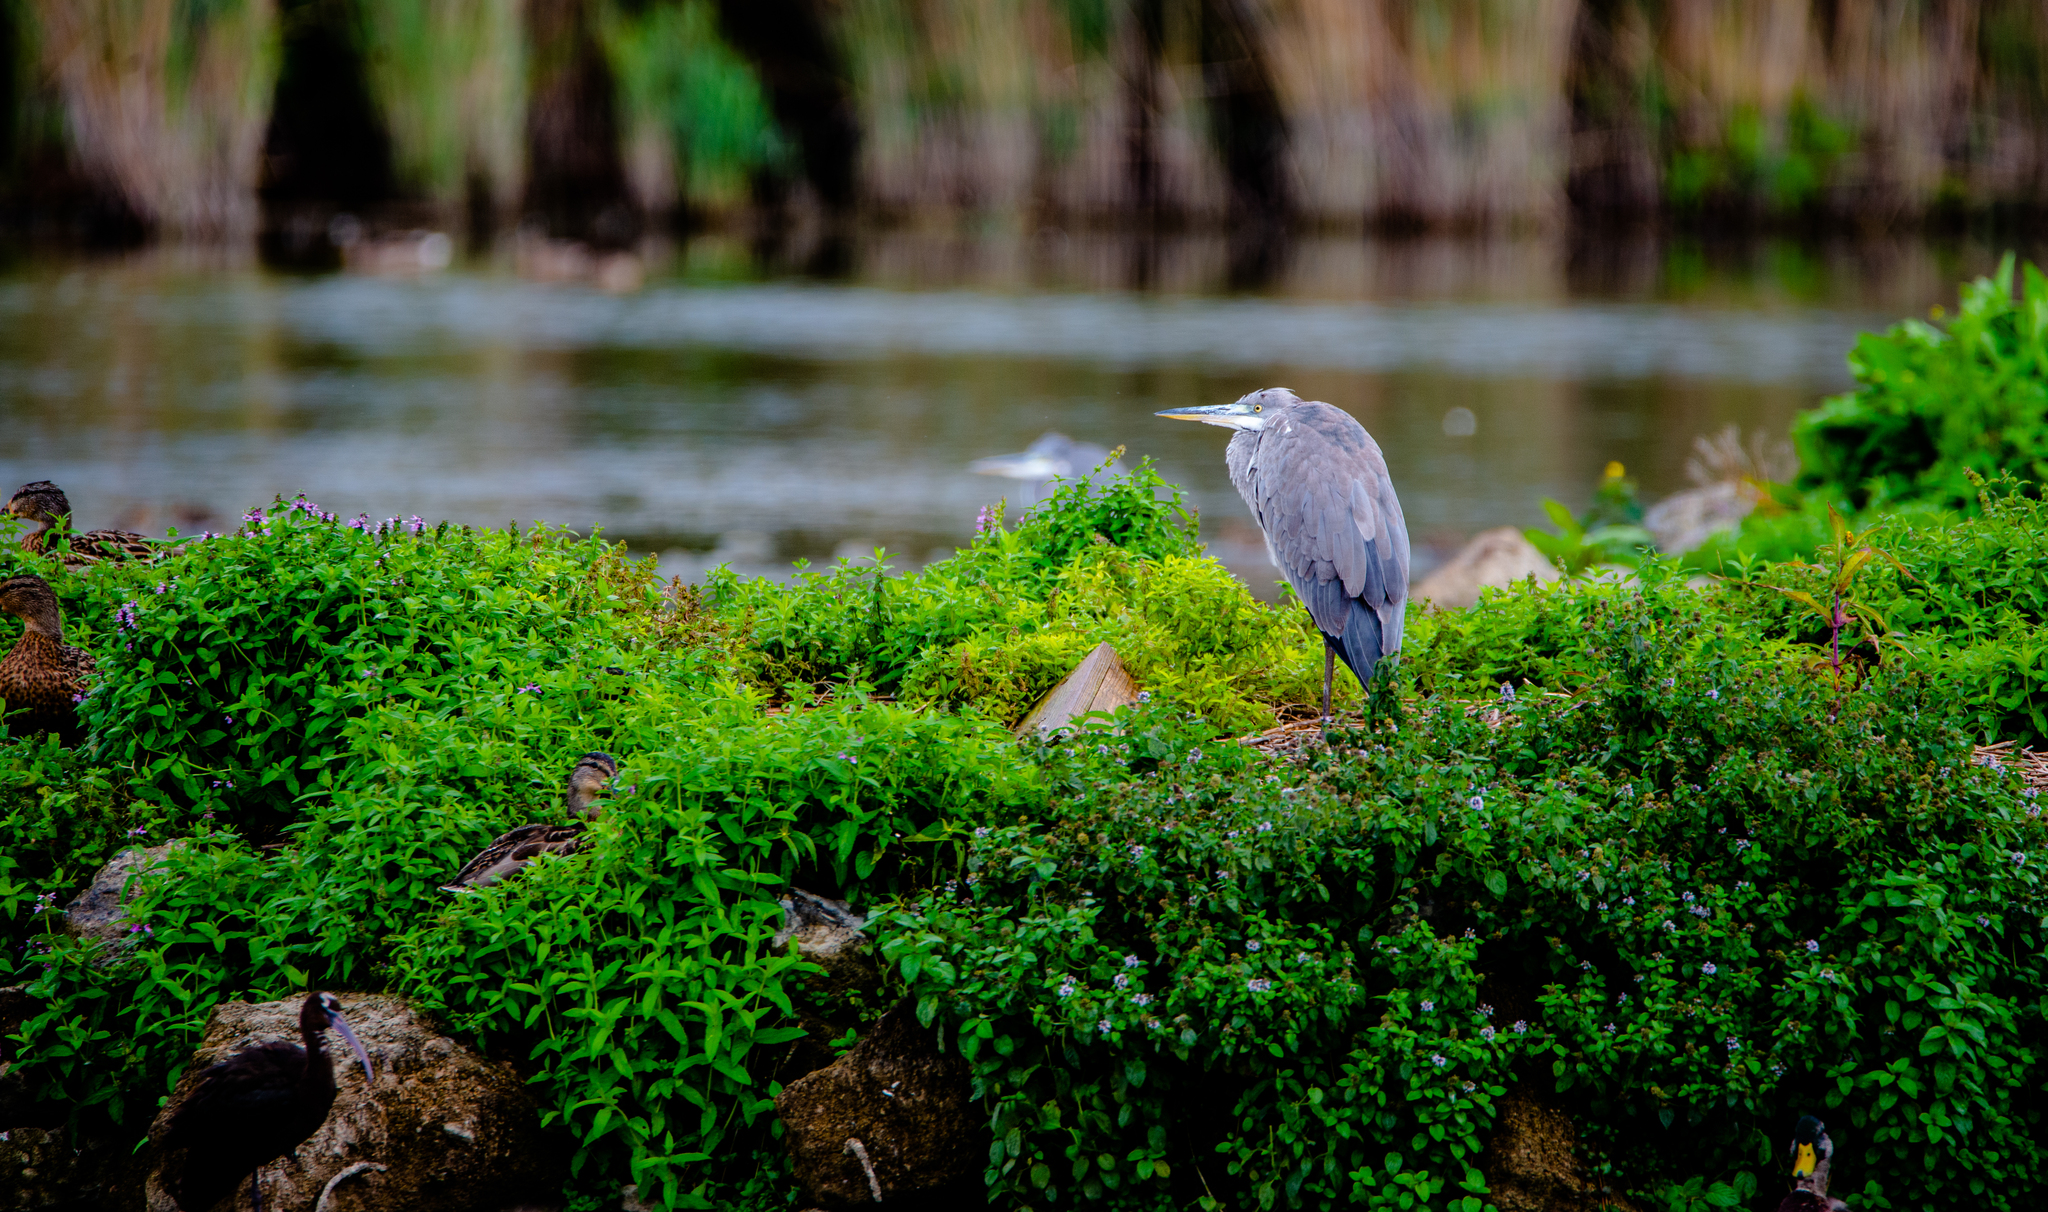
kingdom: Animalia
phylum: Chordata
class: Aves
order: Pelecaniformes
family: Ardeidae
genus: Ardea
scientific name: Ardea cinerea
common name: Grey heron
